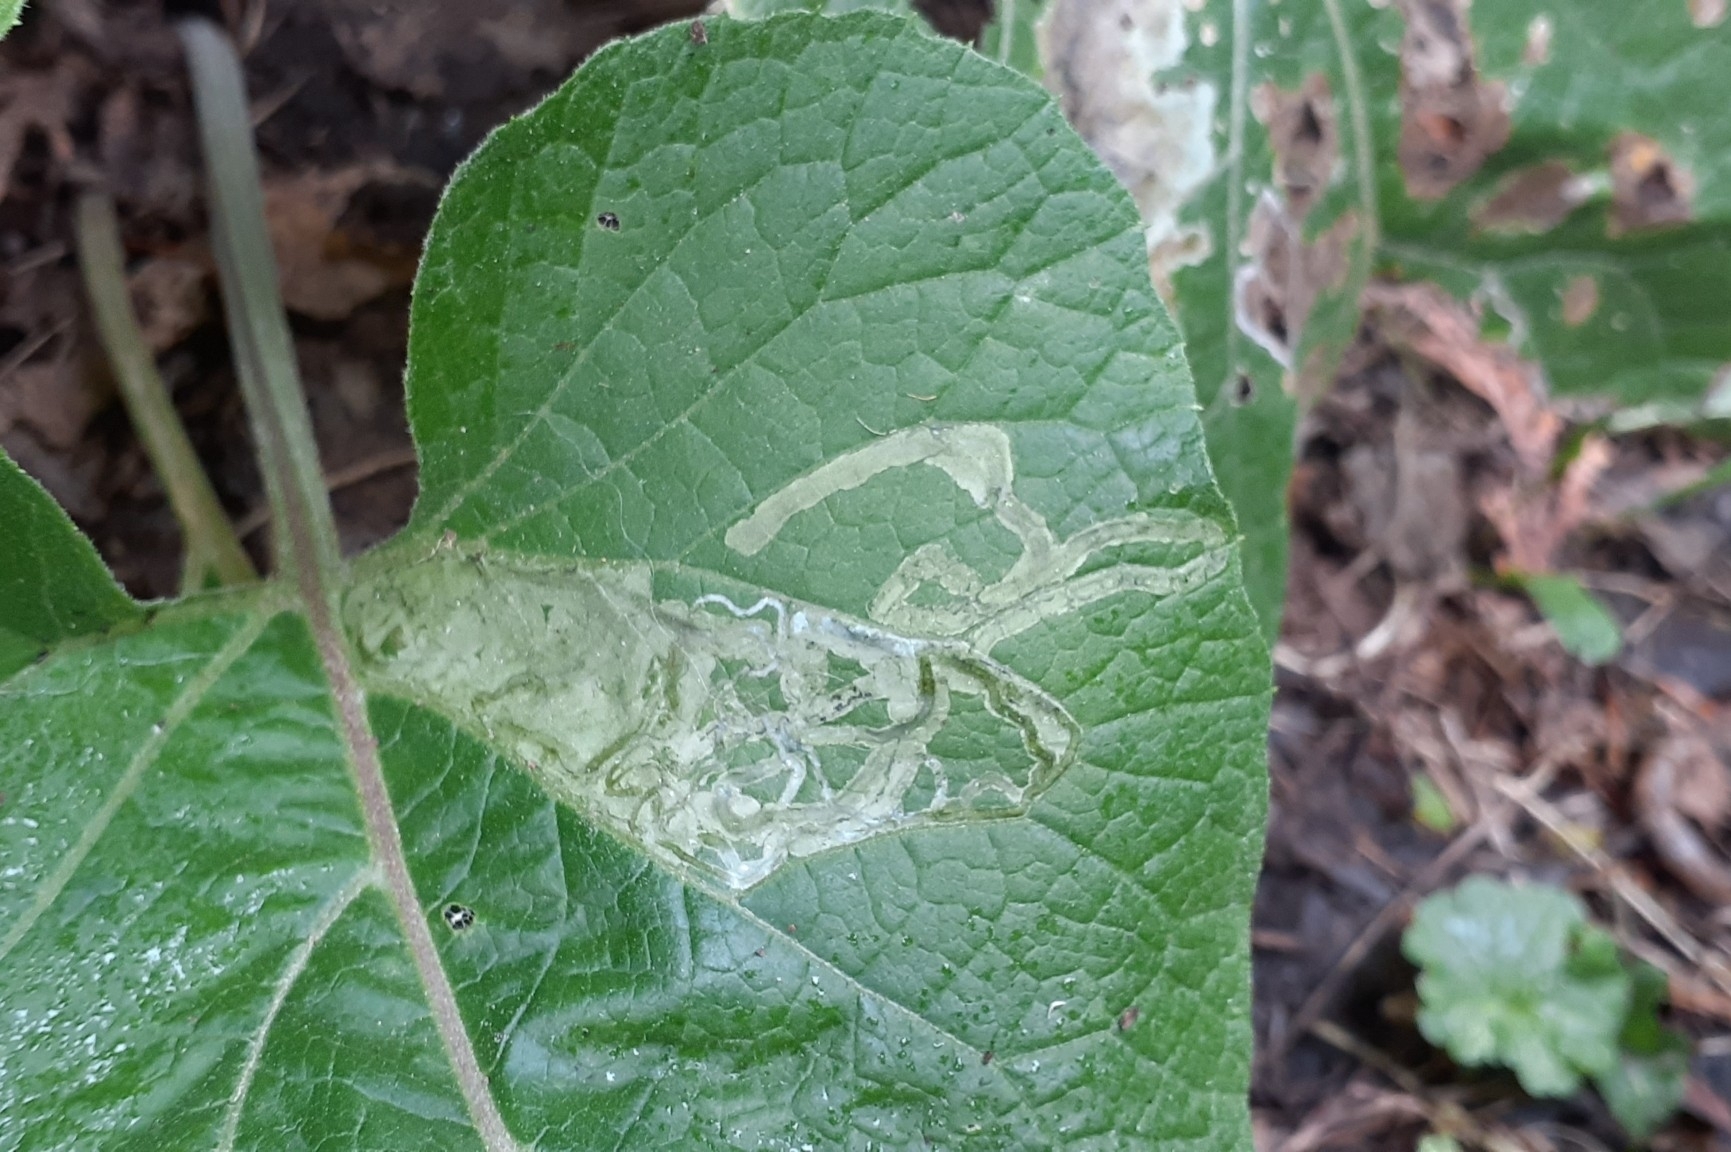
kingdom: Animalia
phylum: Arthropoda
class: Insecta
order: Diptera
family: Agromyzidae
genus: Liriomyza
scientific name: Liriomyza arctii
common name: Burdock leafminer
